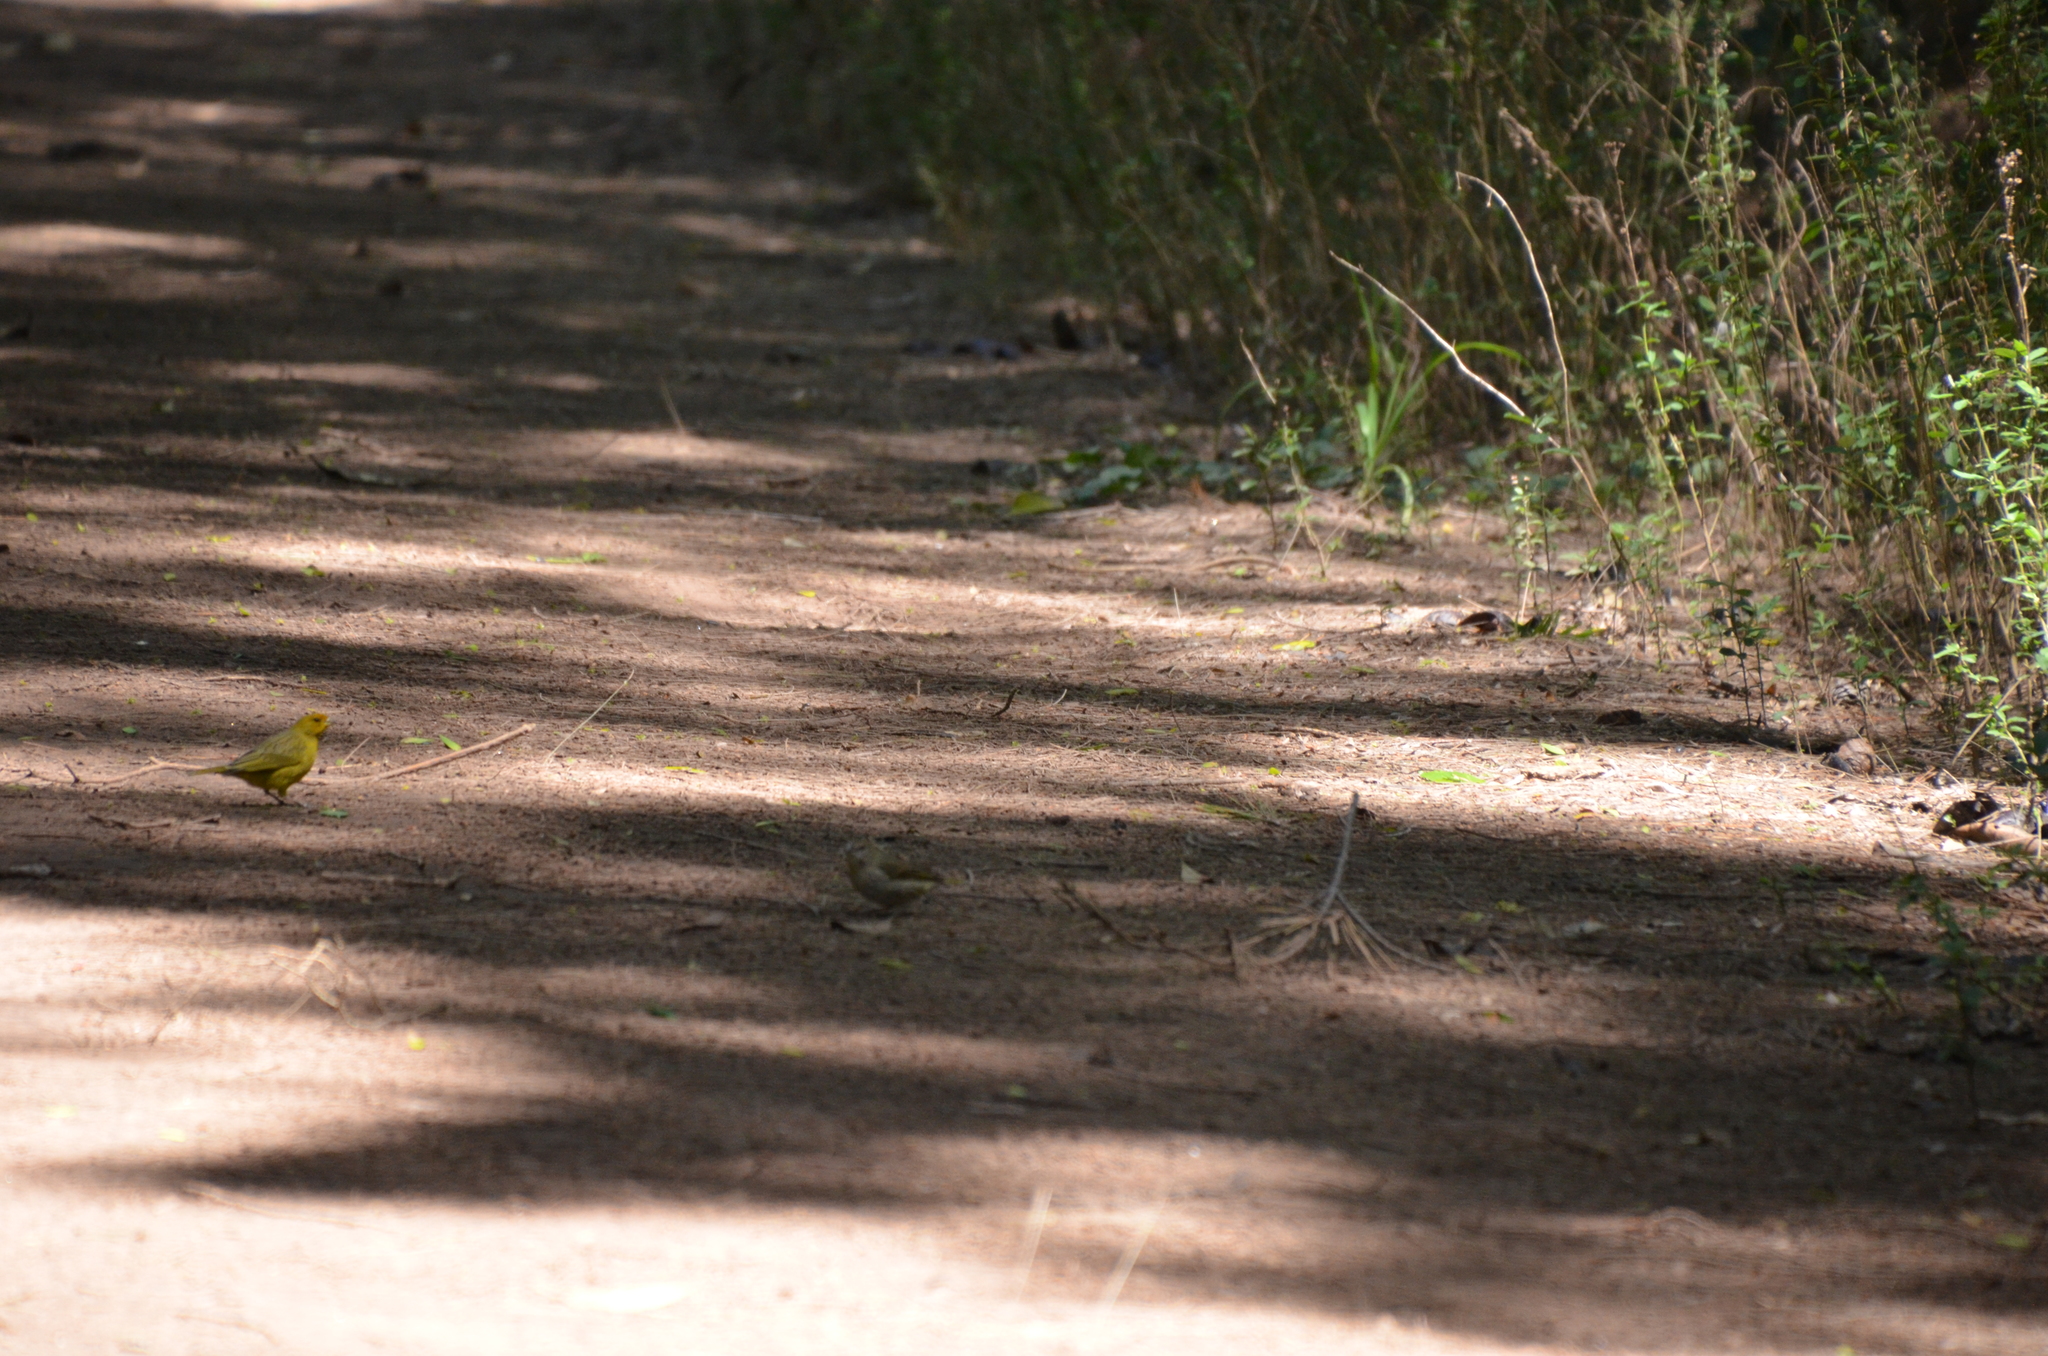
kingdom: Animalia
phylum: Chordata
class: Aves
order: Passeriformes
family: Thraupidae
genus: Sicalis
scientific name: Sicalis flaveola
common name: Saffron finch
